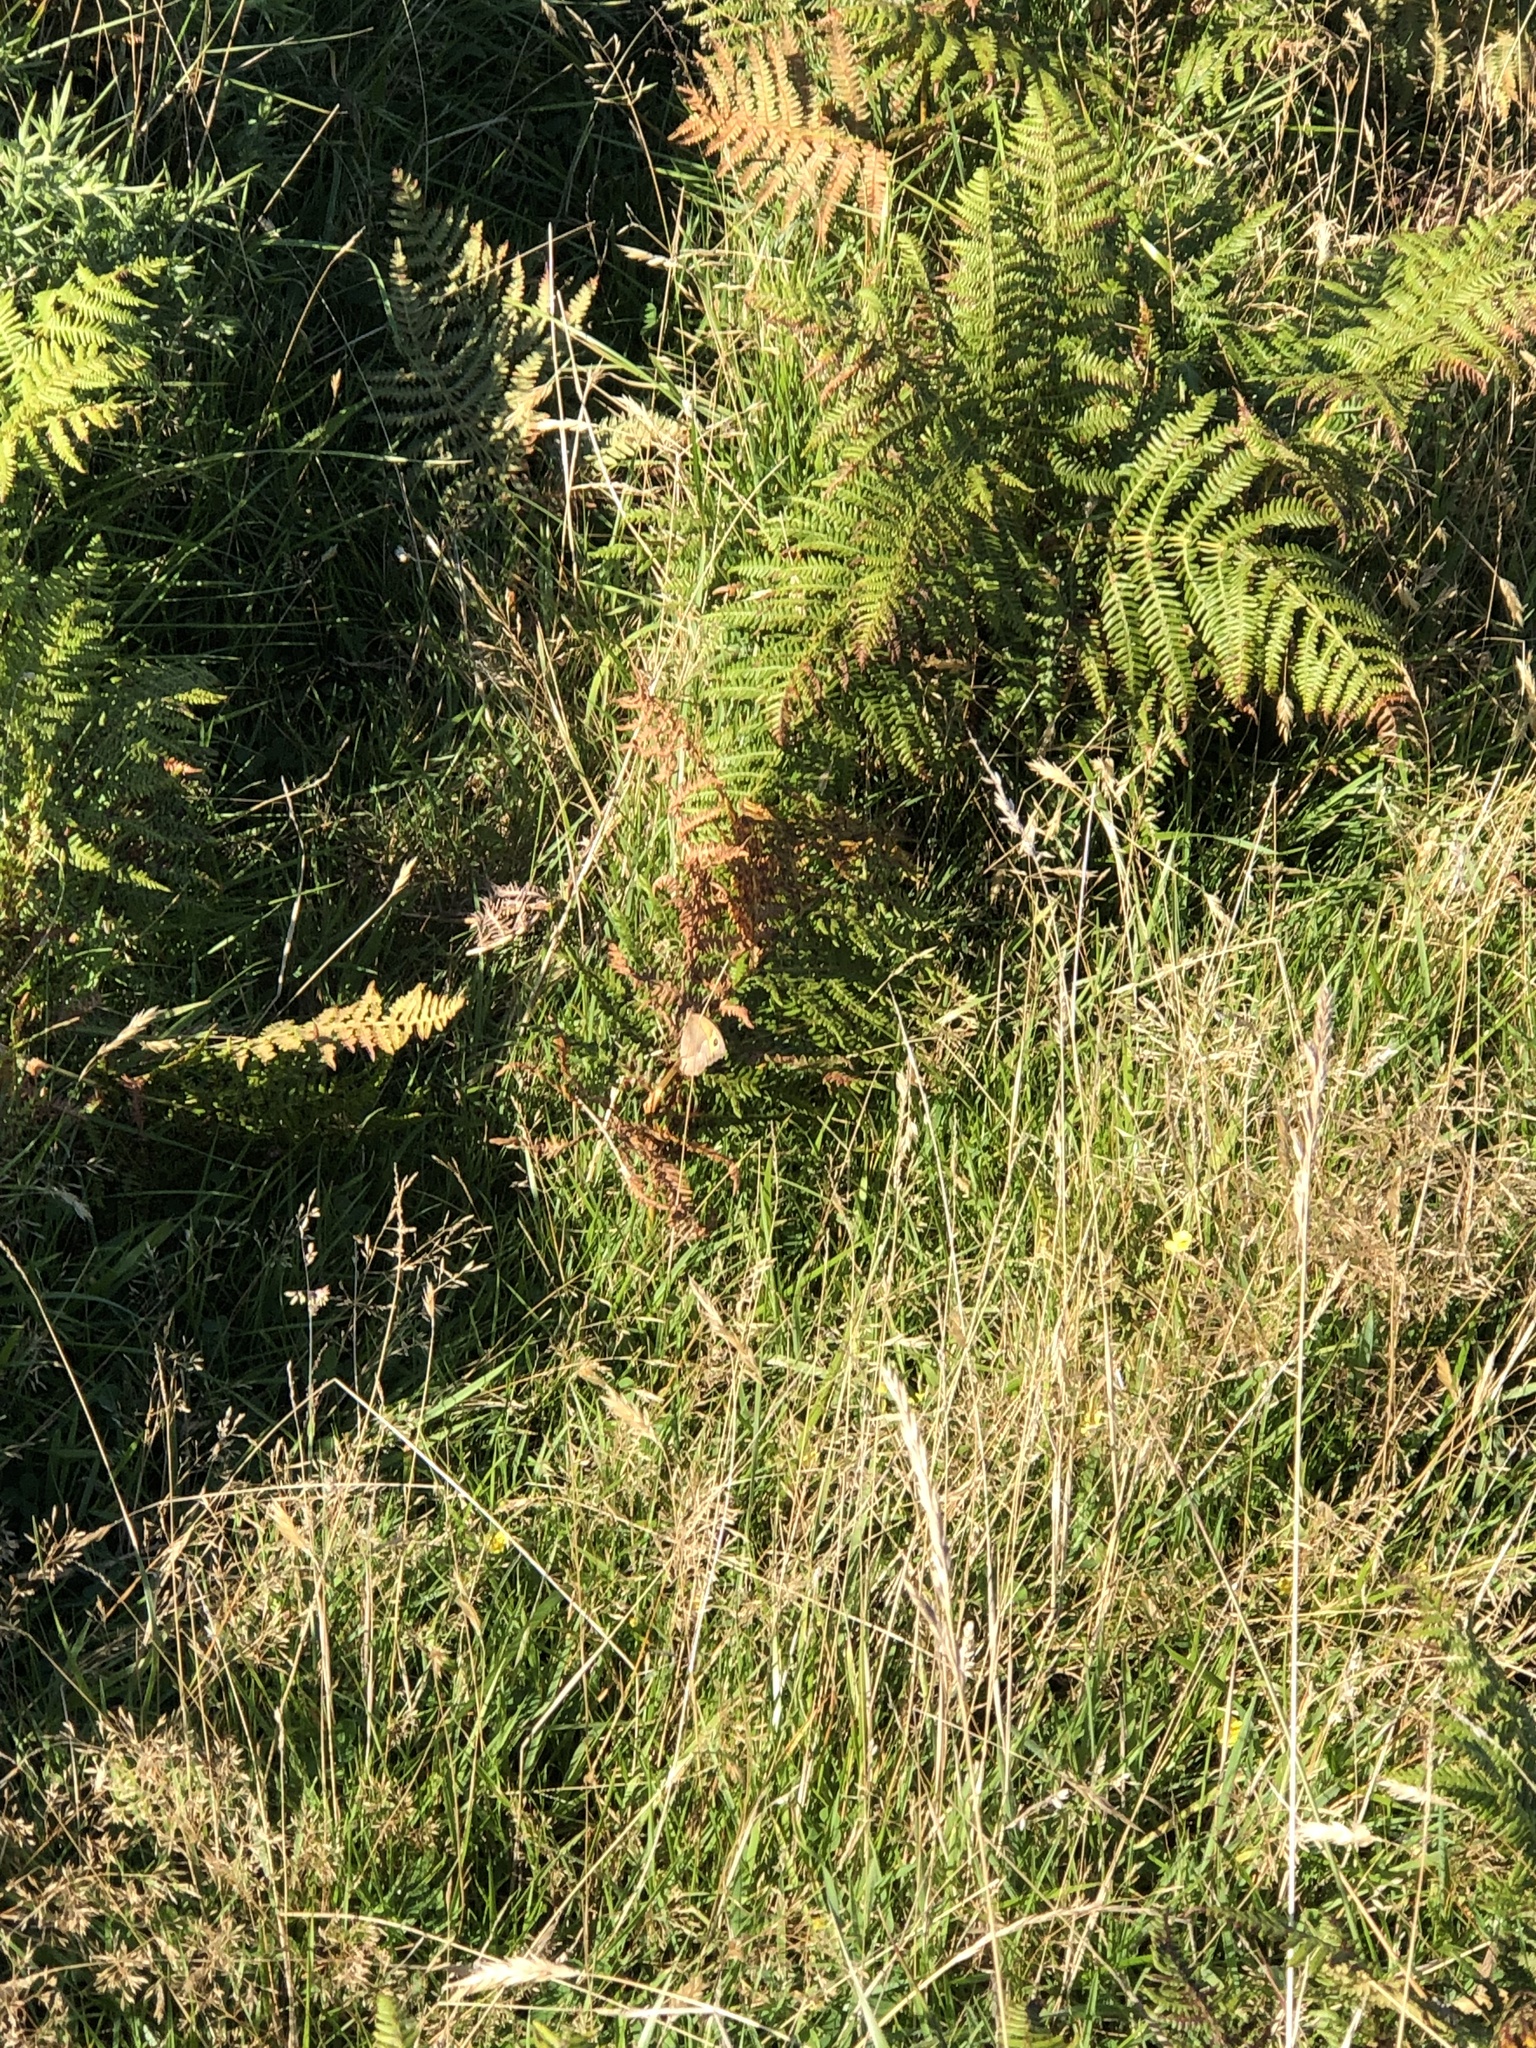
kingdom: Animalia
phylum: Arthropoda
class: Insecta
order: Lepidoptera
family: Nymphalidae
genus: Maniola
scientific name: Maniola jurtina
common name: Meadow brown
